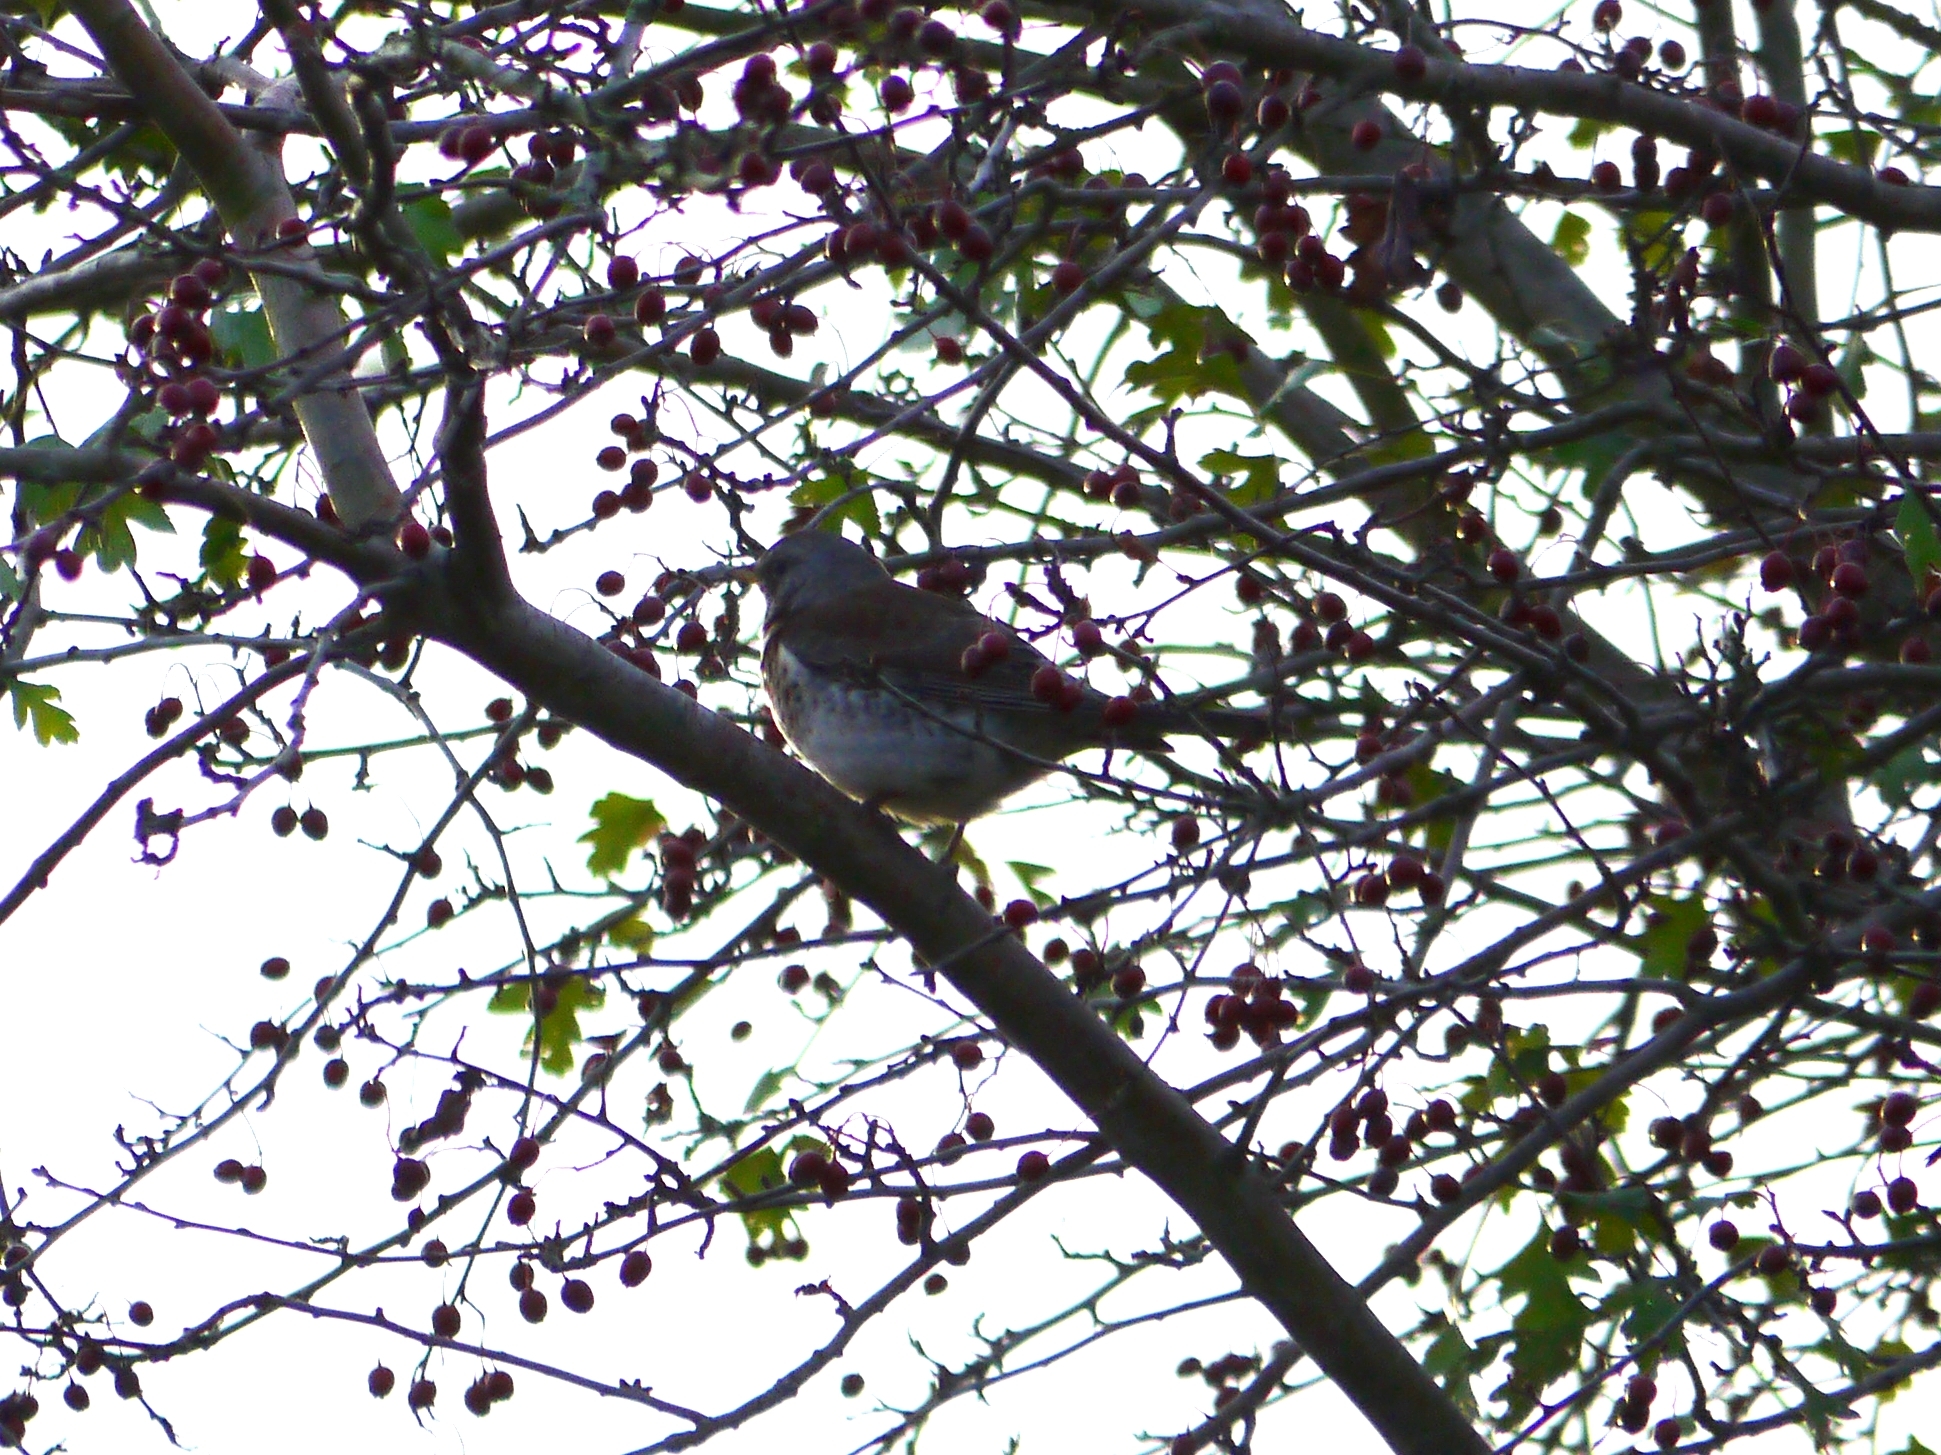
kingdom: Animalia
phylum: Chordata
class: Aves
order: Passeriformes
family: Turdidae
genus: Turdus
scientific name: Turdus pilaris
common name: Fieldfare
